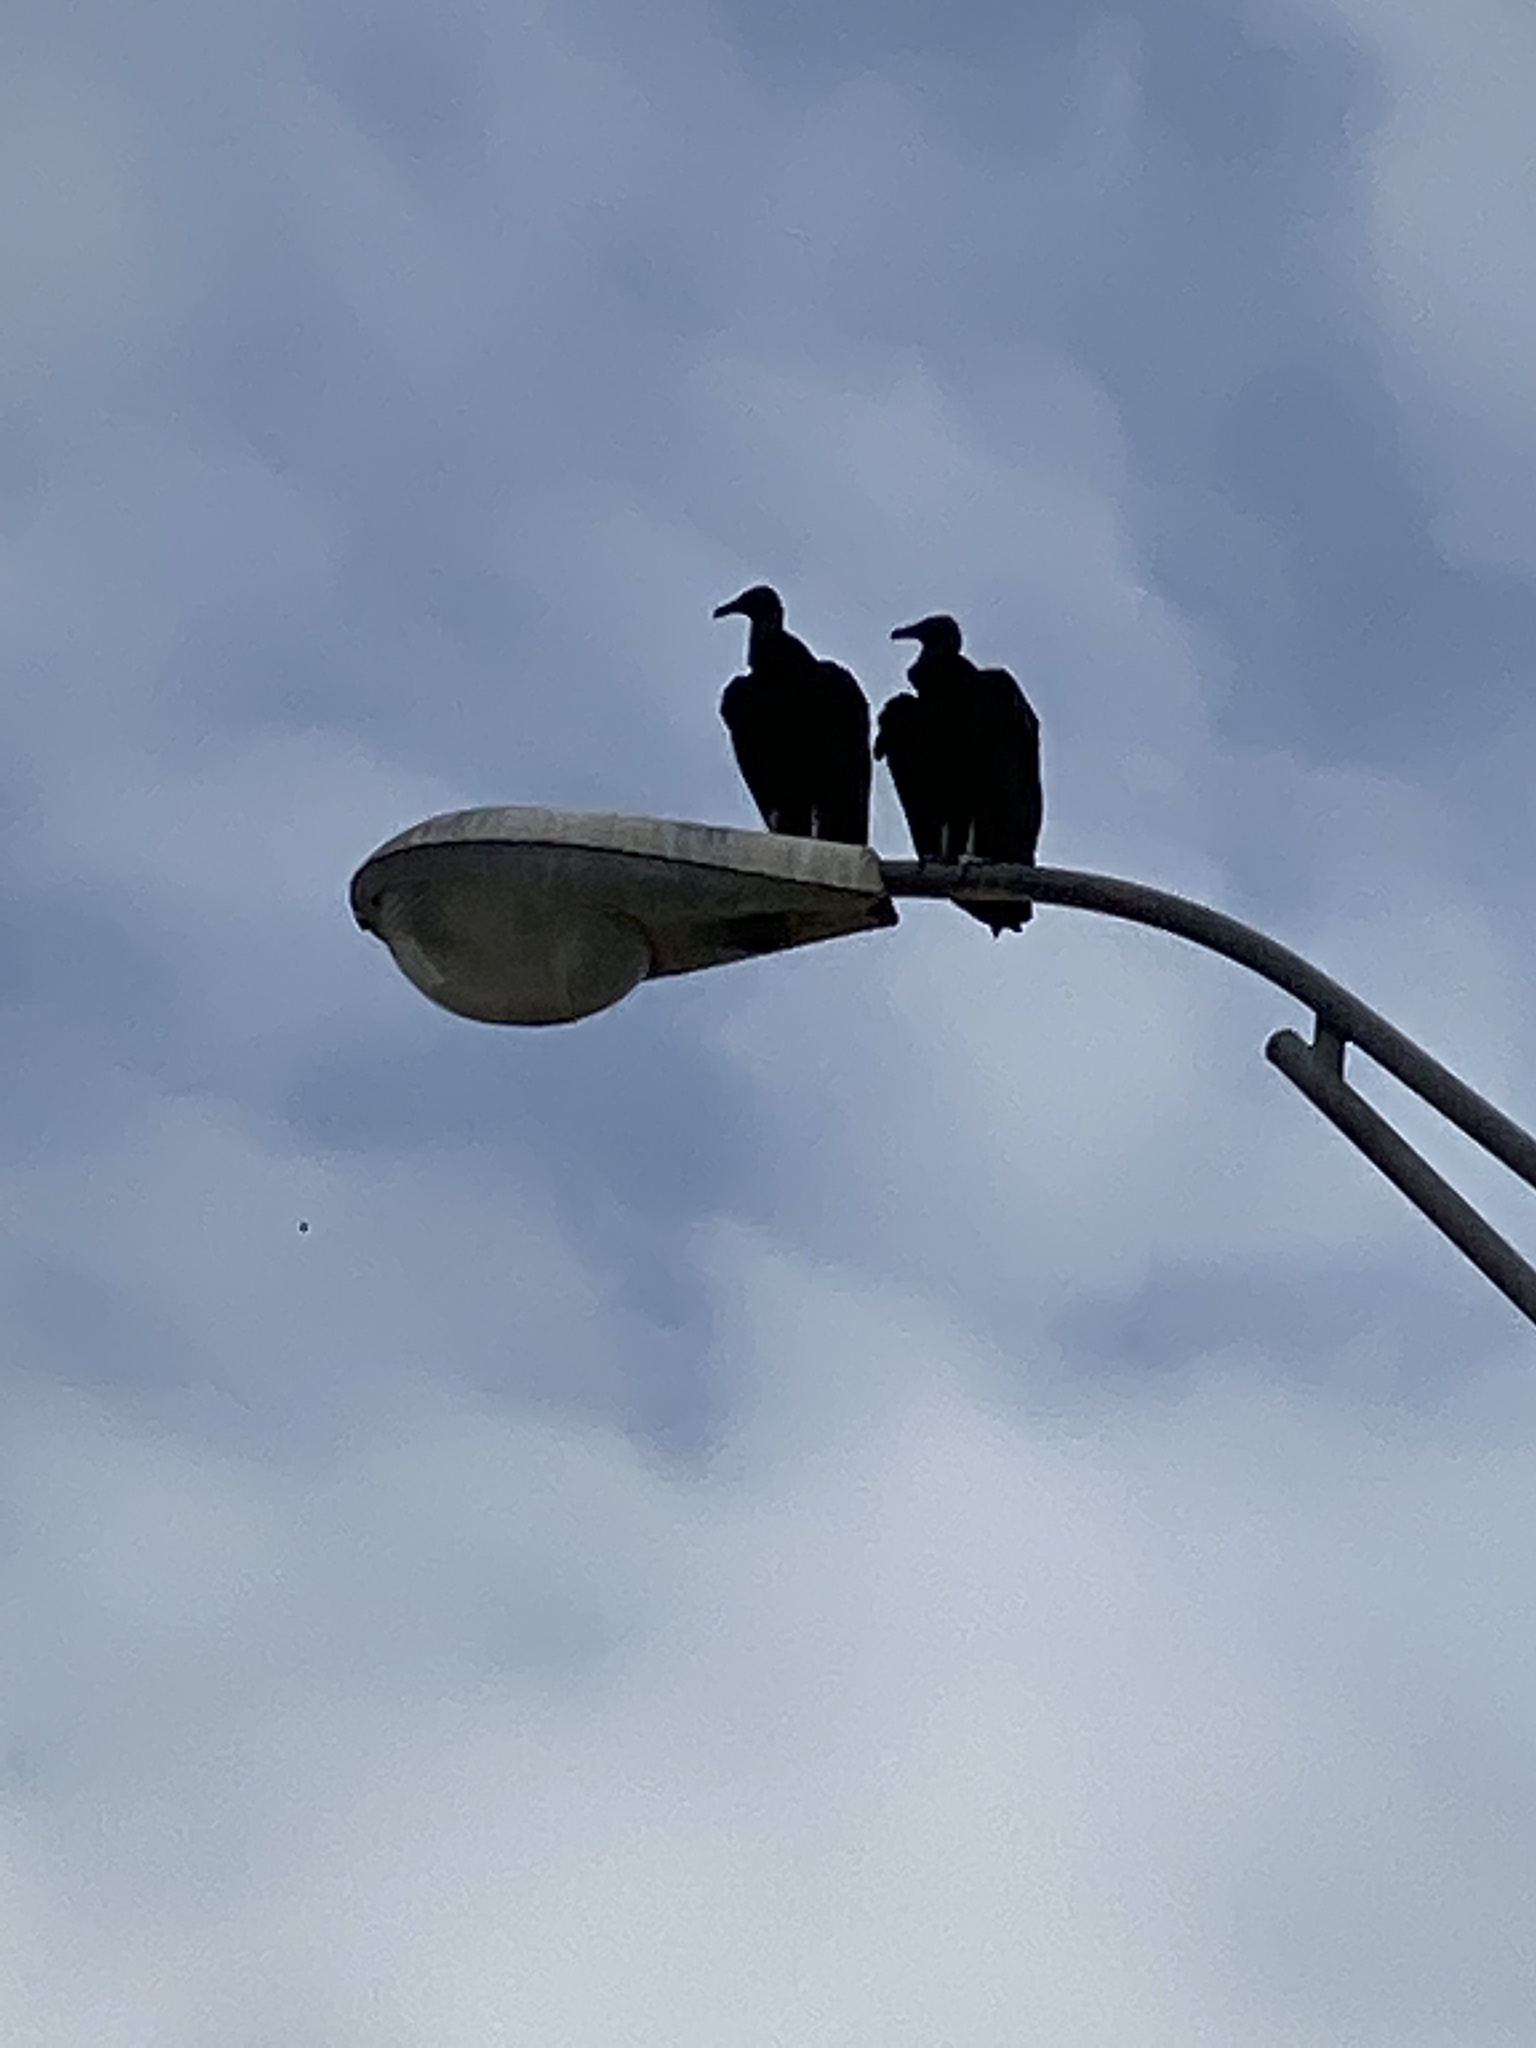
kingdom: Animalia
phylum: Chordata
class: Aves
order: Accipitriformes
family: Cathartidae
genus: Coragyps
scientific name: Coragyps atratus
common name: Black vulture
